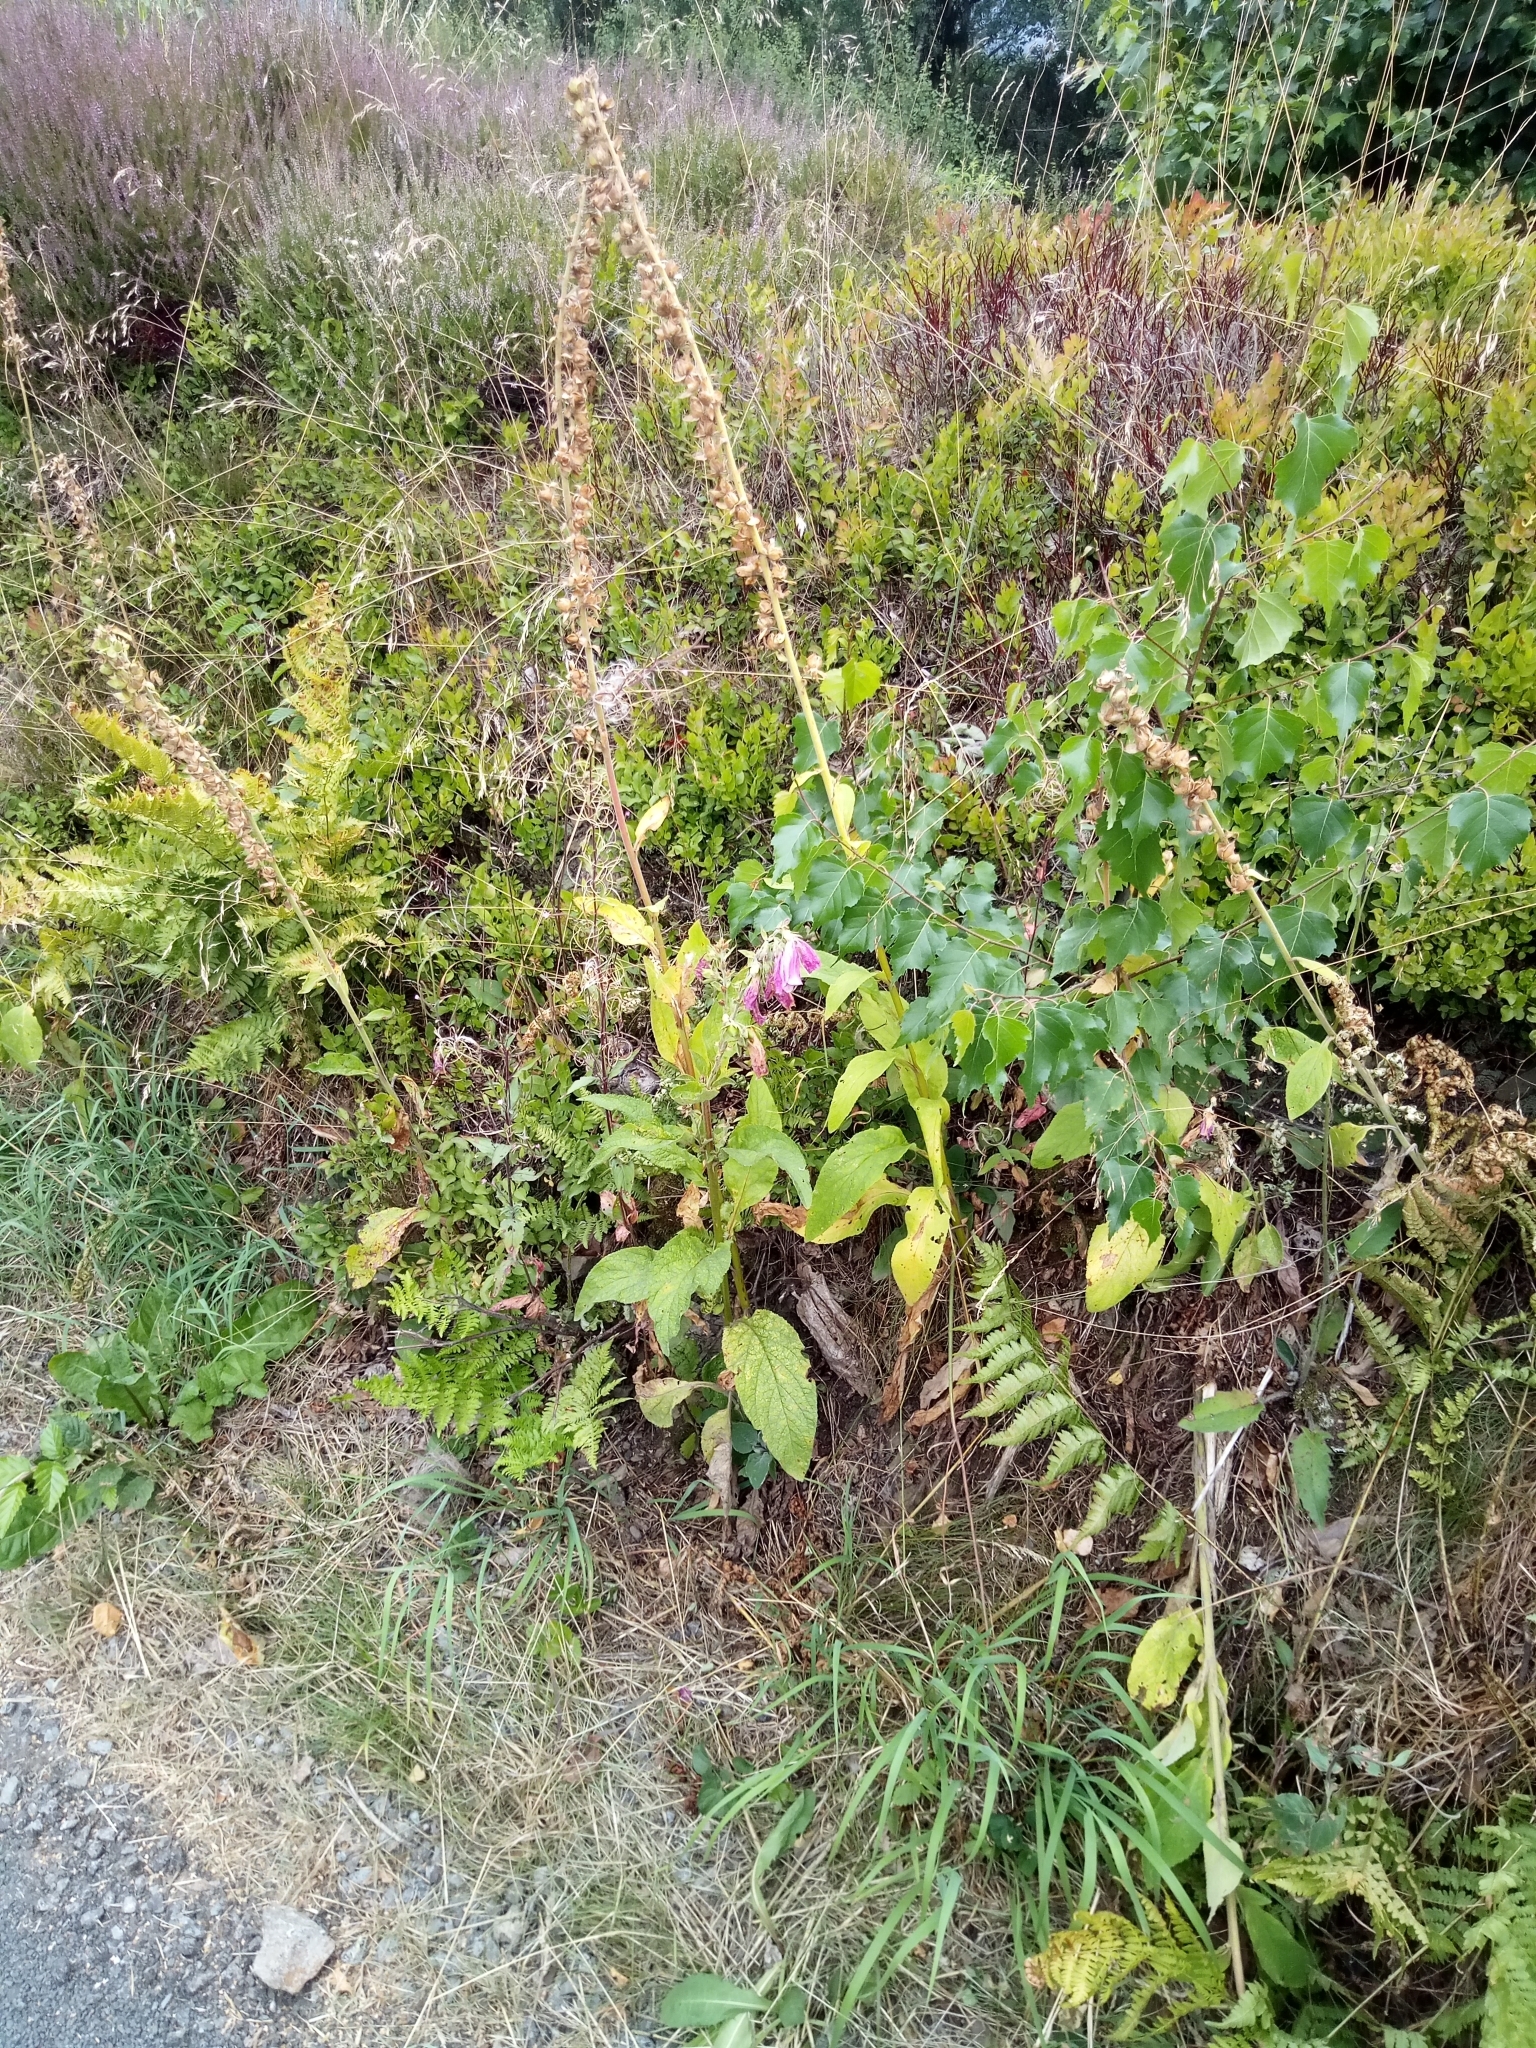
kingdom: Plantae
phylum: Tracheophyta
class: Magnoliopsida
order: Lamiales
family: Plantaginaceae
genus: Digitalis
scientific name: Digitalis purpurea
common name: Foxglove
